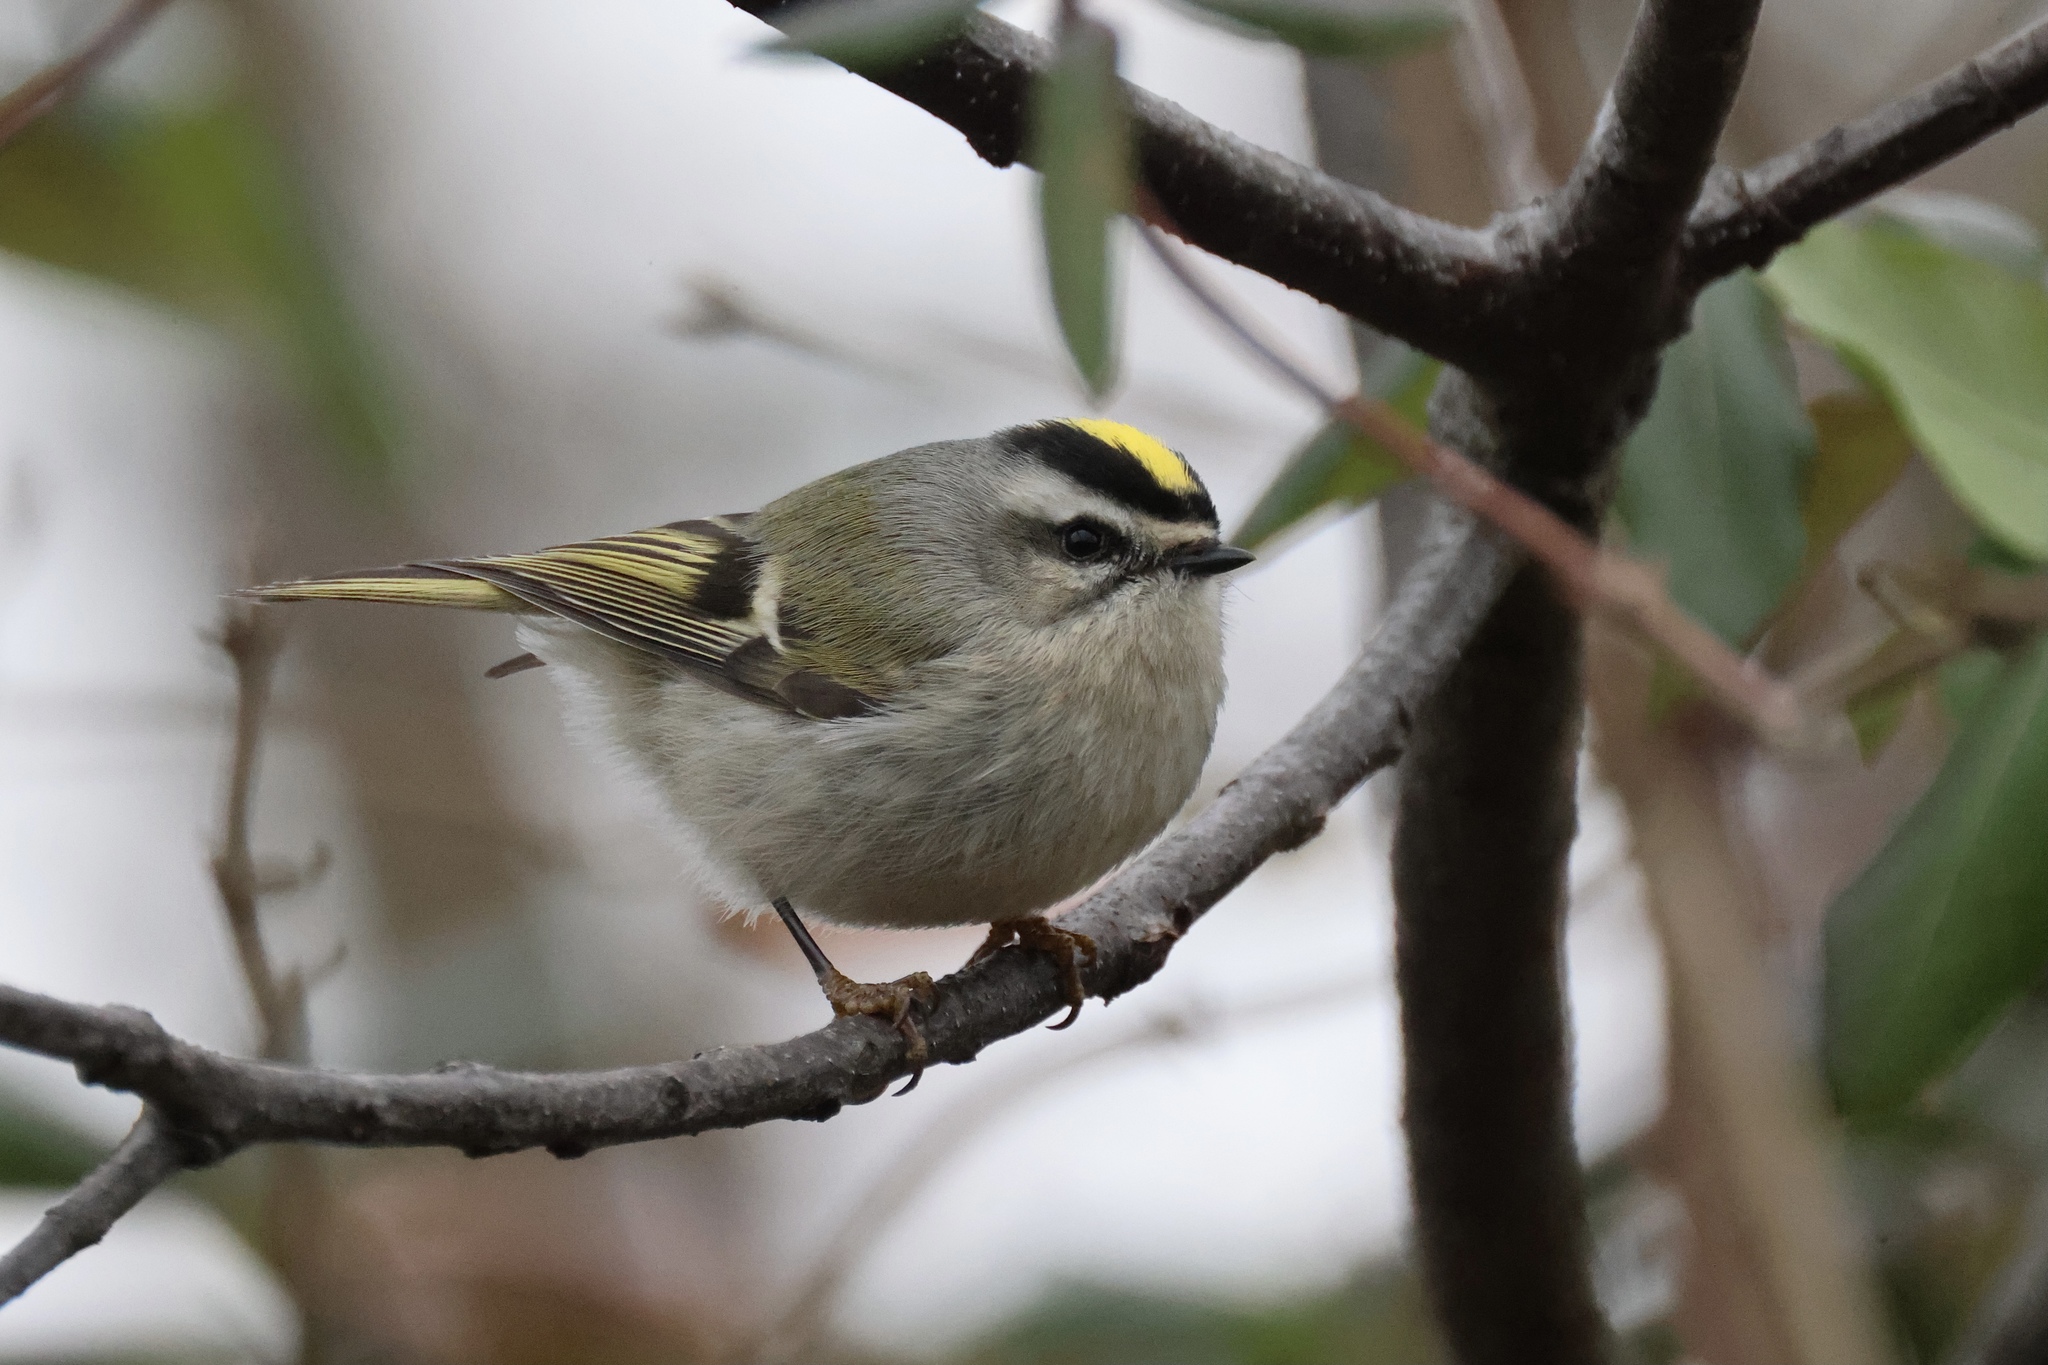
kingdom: Animalia
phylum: Chordata
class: Aves
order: Passeriformes
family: Regulidae
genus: Regulus
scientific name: Regulus satrapa
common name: Golden-crowned kinglet
